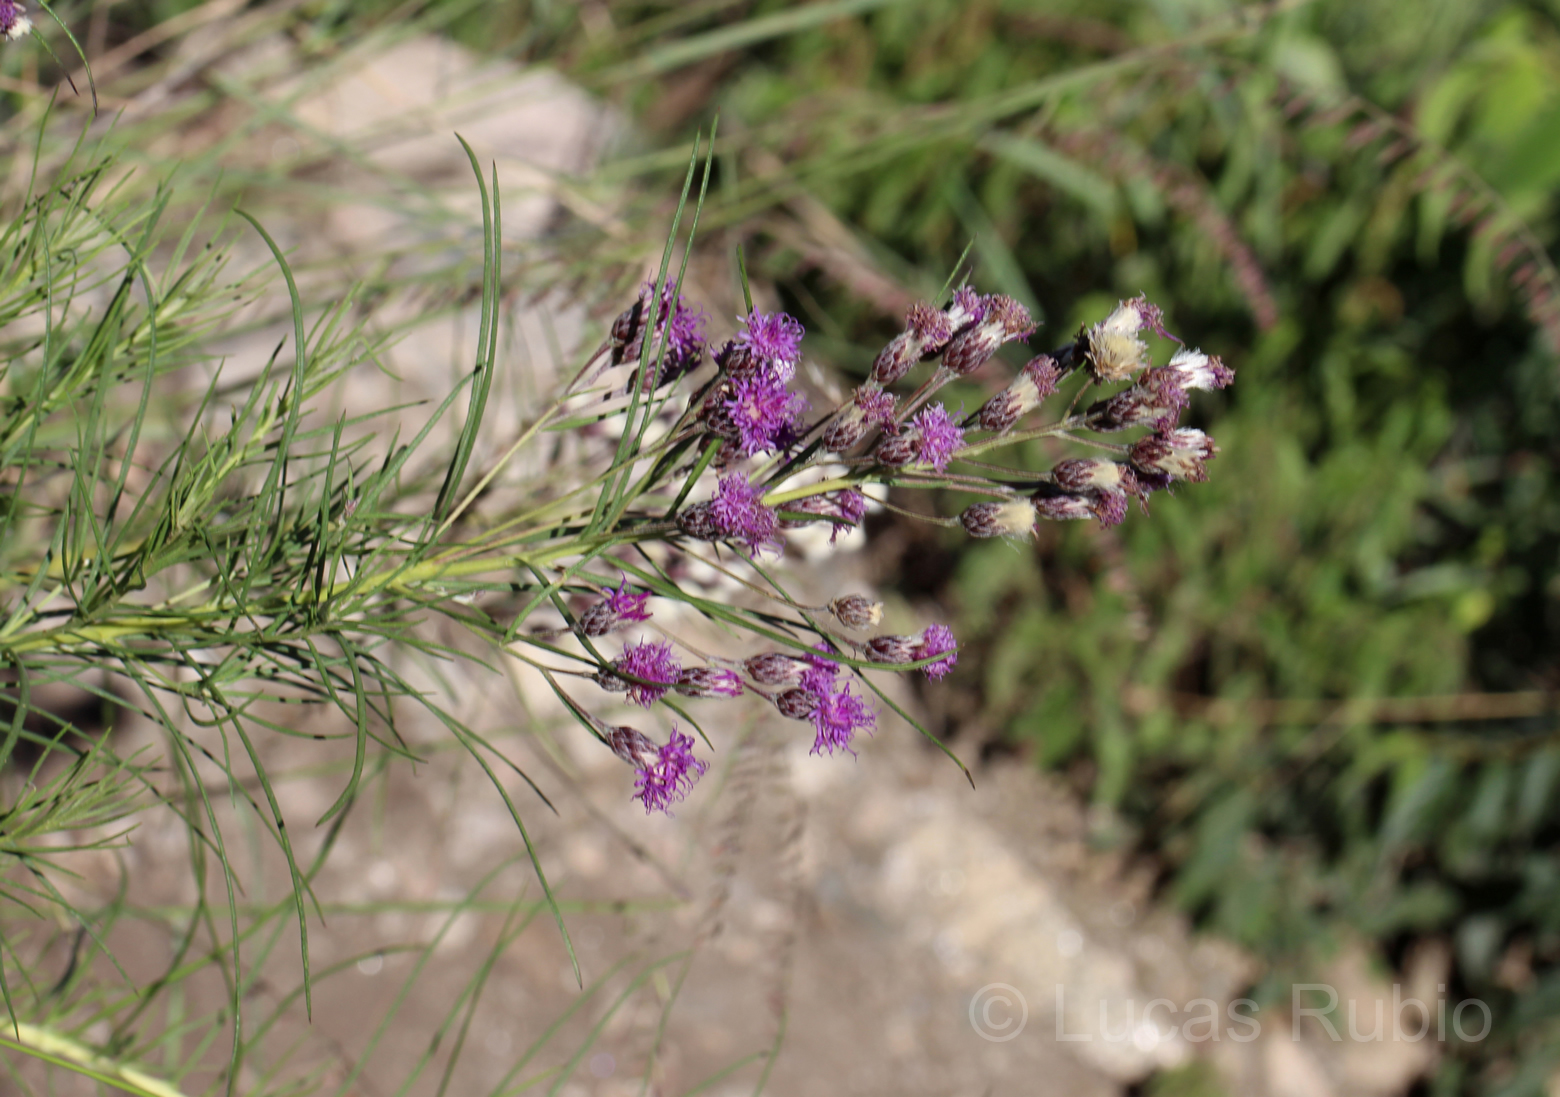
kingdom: Plantae
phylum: Tracheophyta
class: Magnoliopsida
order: Asterales
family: Asteraceae
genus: Vernonanthura
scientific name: Vernonanthura nudiflora
